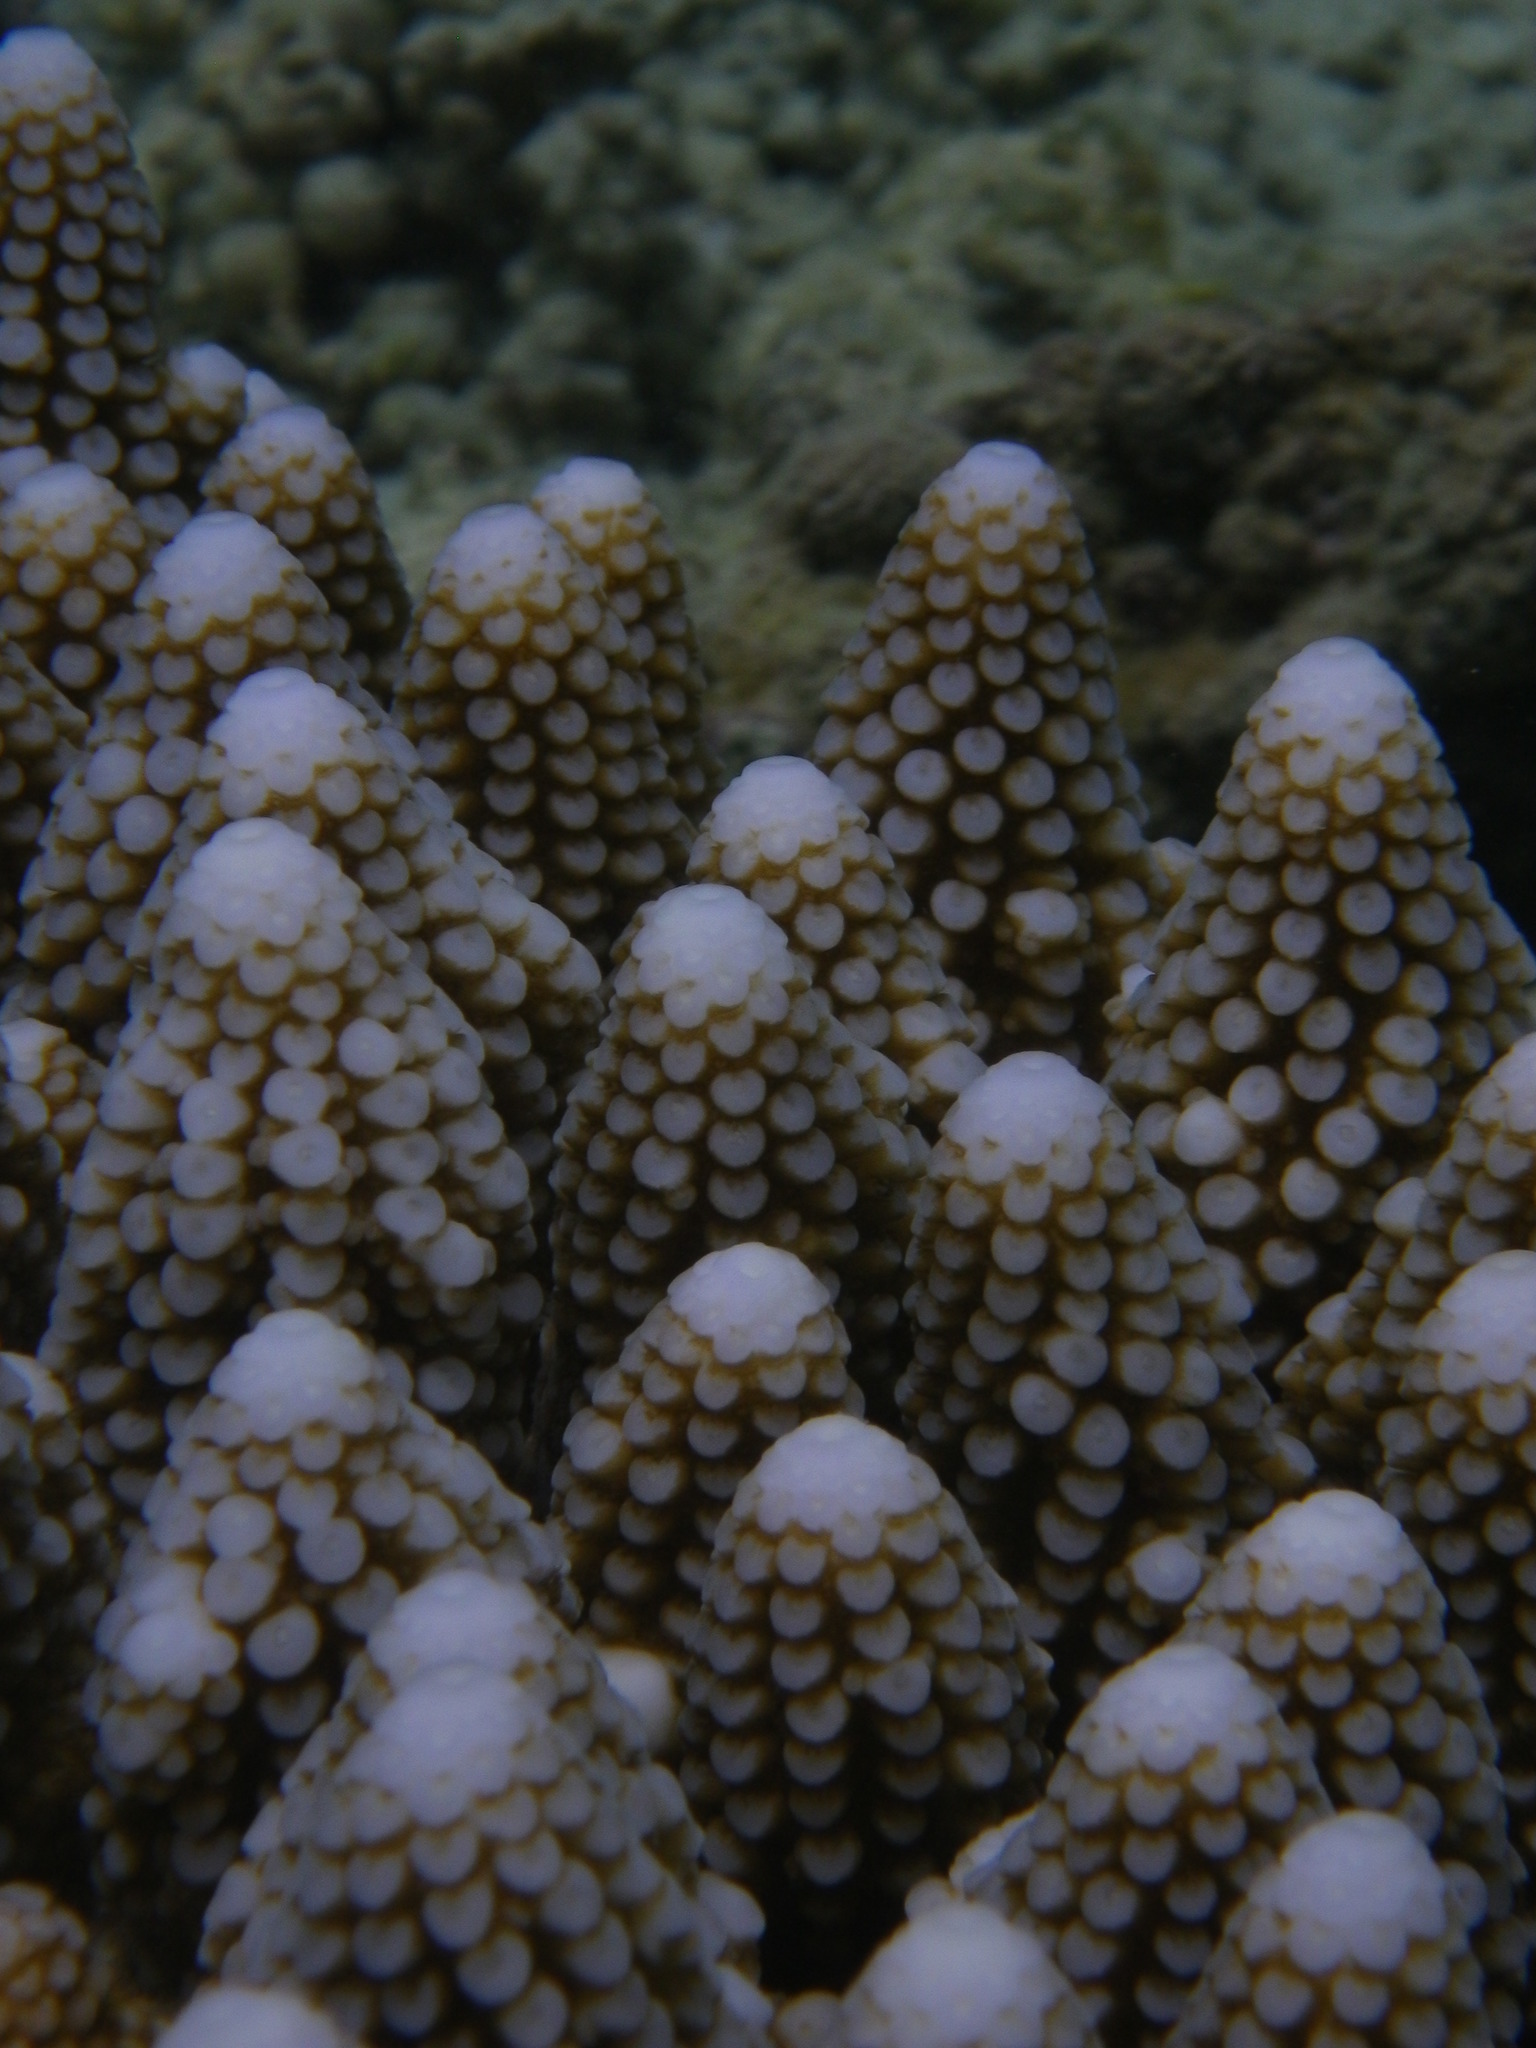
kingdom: Animalia
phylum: Cnidaria
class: Anthozoa
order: Scleractinia
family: Acroporidae
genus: Acropora
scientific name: Acropora gemmifera
